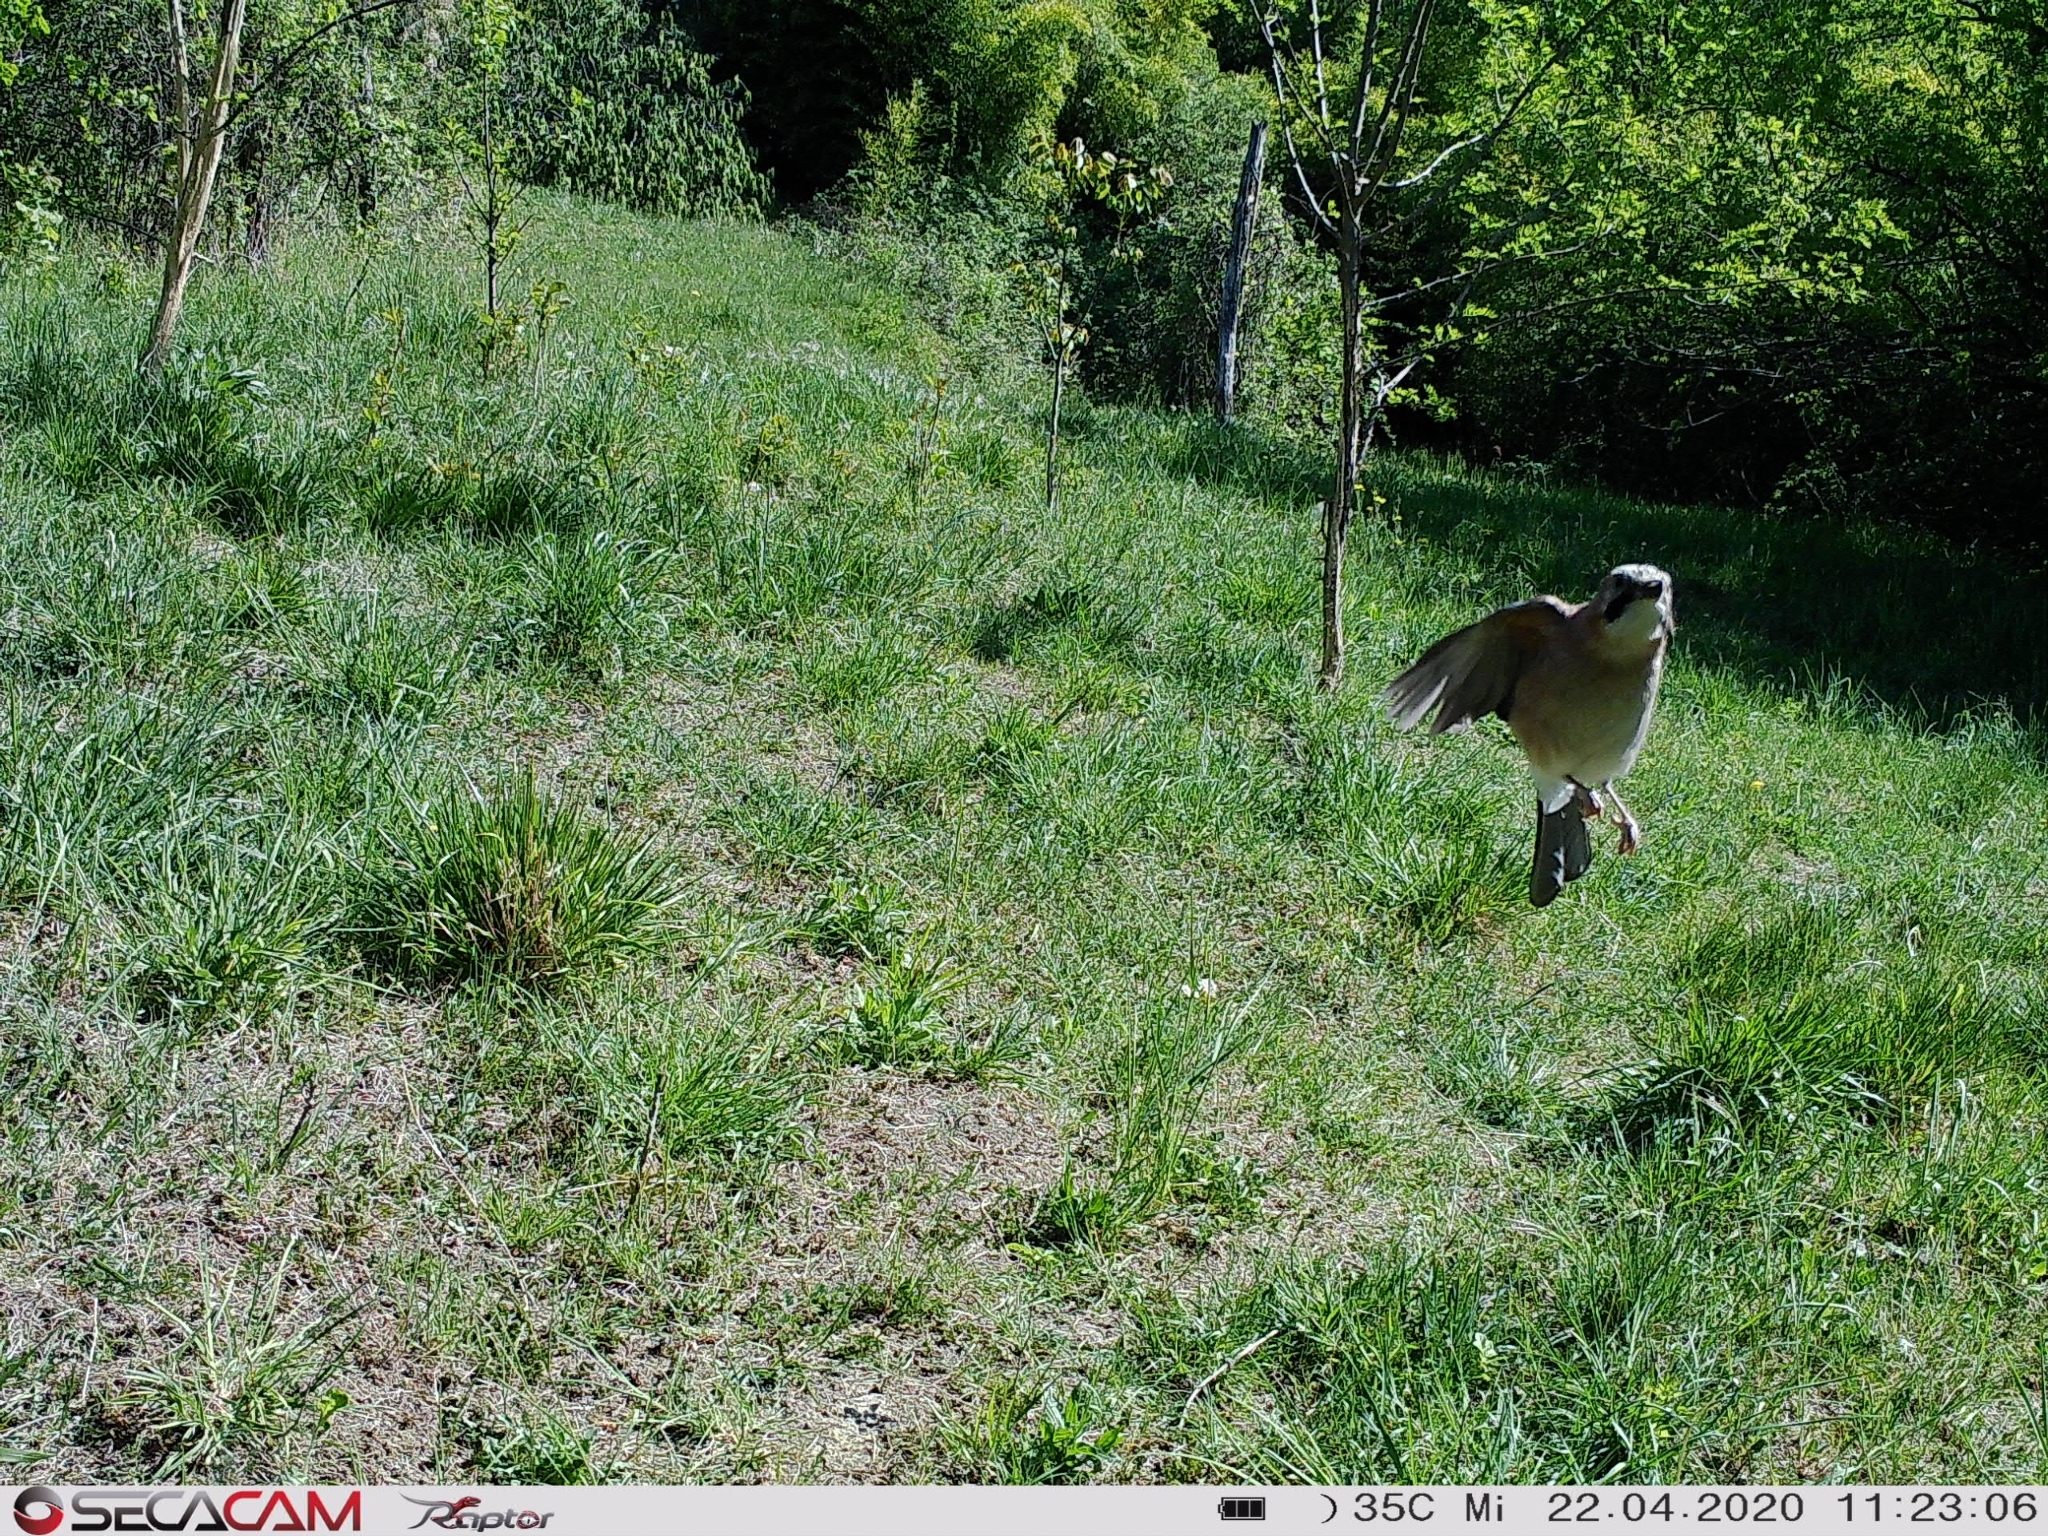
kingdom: Animalia
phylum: Chordata
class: Aves
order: Passeriformes
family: Corvidae
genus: Garrulus
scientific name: Garrulus glandarius
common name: Eurasian jay
